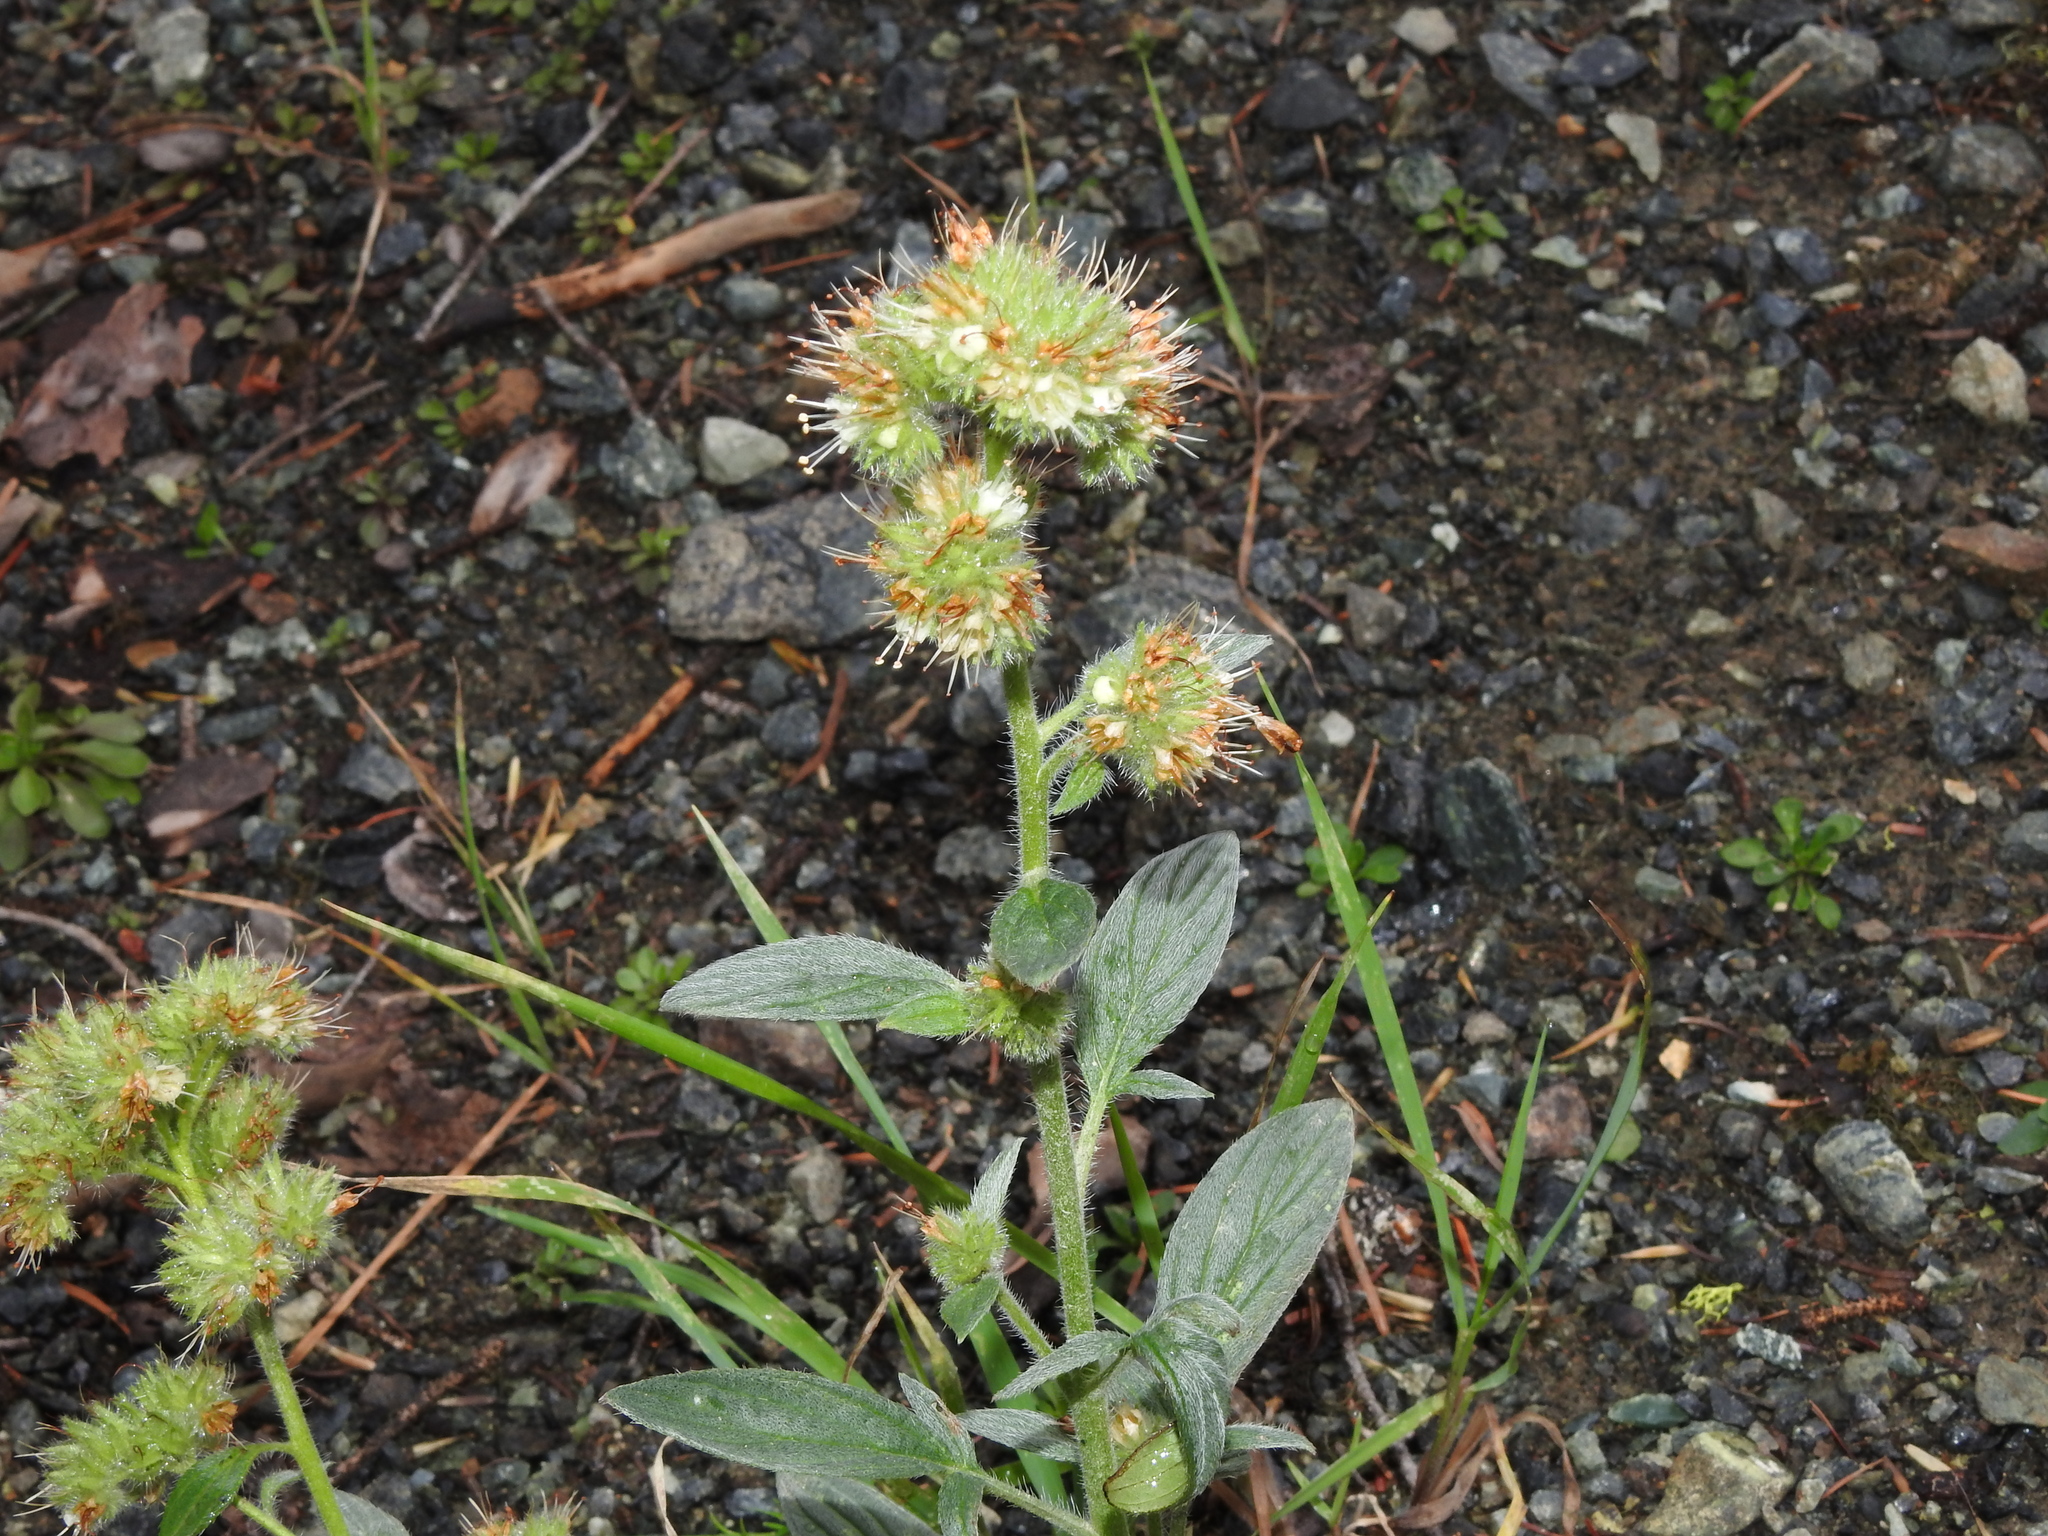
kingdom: Plantae
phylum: Tracheophyta
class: Magnoliopsida
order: Boraginales
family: Hydrophyllaceae
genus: Phacelia
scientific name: Phacelia hastata
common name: Silver-leaved phacelia
